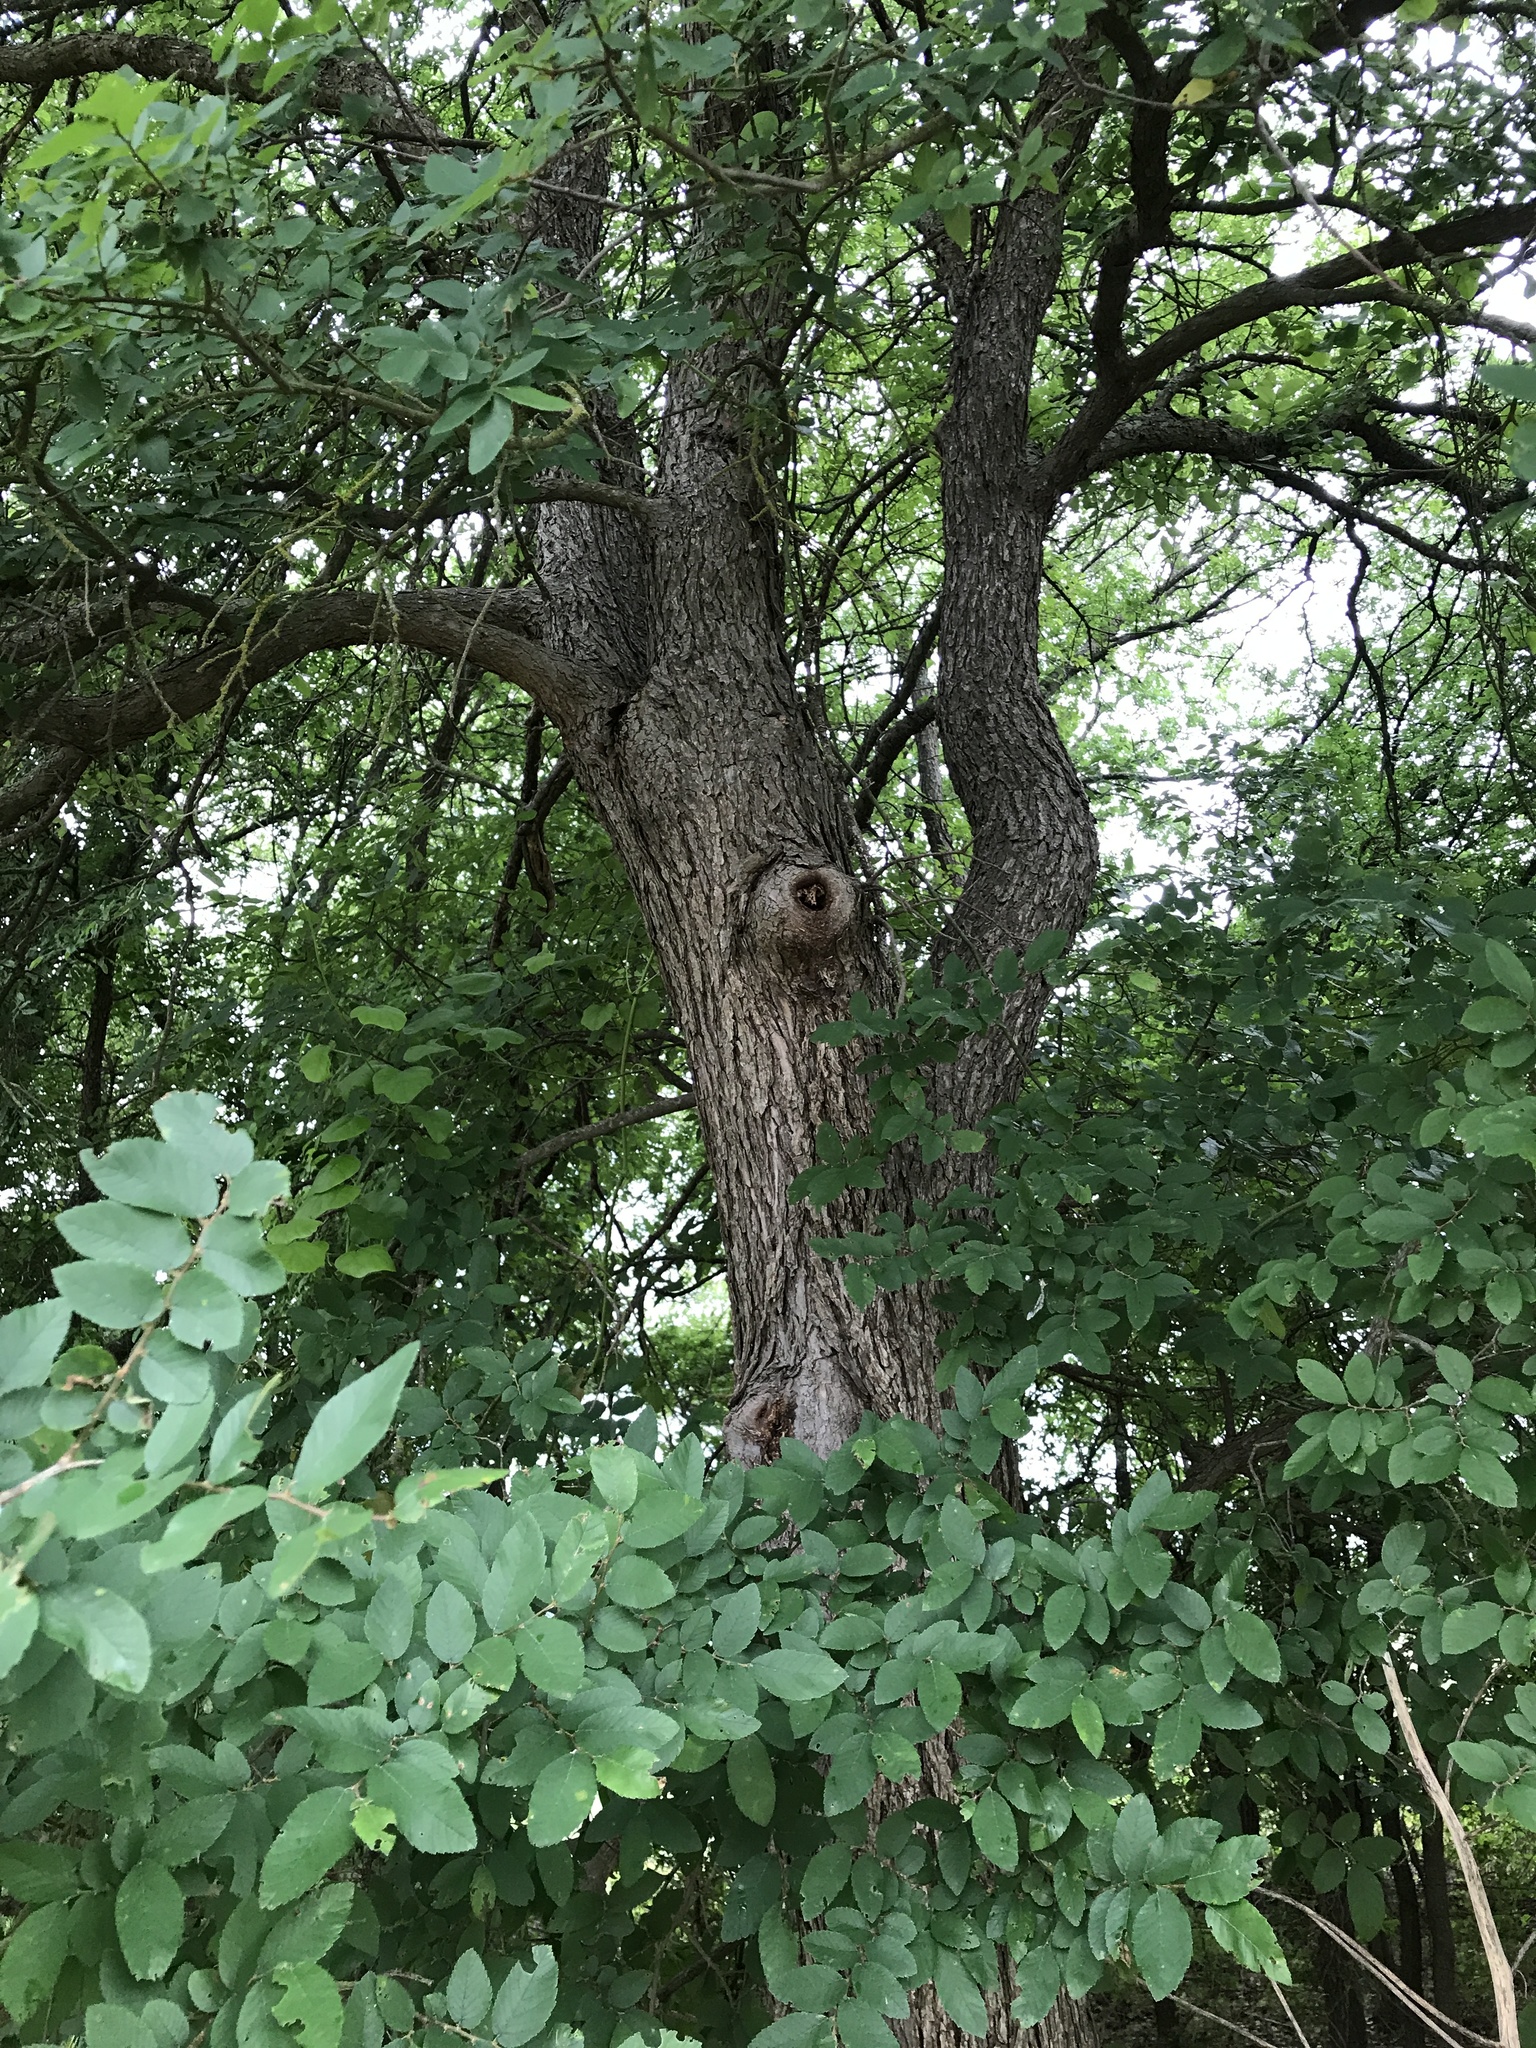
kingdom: Plantae
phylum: Tracheophyta
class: Magnoliopsida
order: Rosales
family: Ulmaceae
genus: Ulmus
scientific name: Ulmus crassifolia
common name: Basket elm
